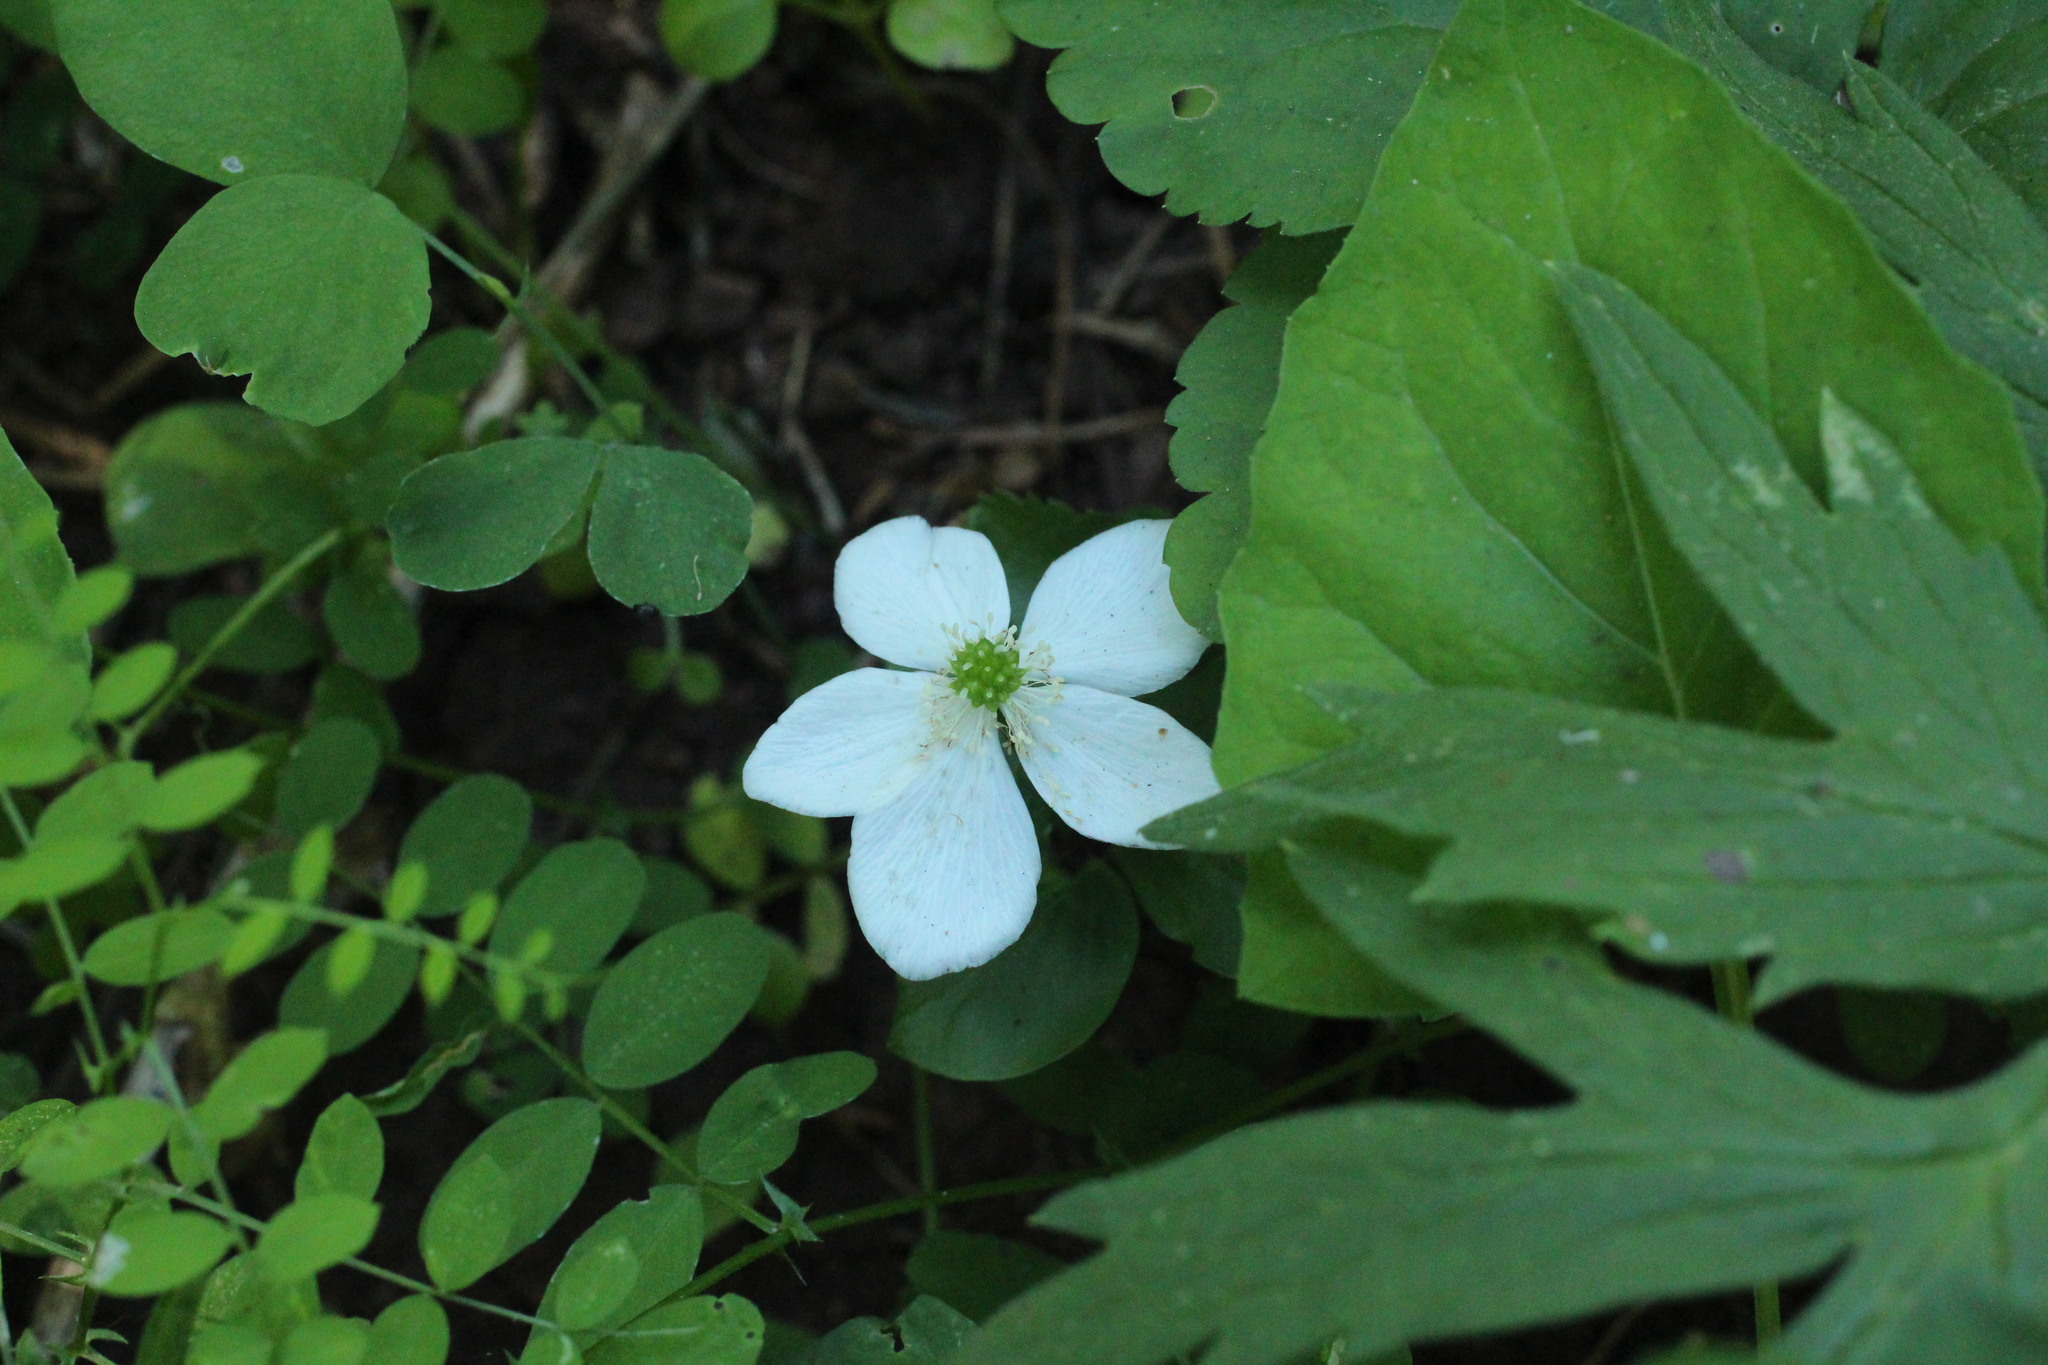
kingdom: Plantae
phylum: Tracheophyta
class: Magnoliopsida
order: Ranunculales
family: Ranunculaceae
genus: Anemonastrum
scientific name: Anemonastrum deltoideum
